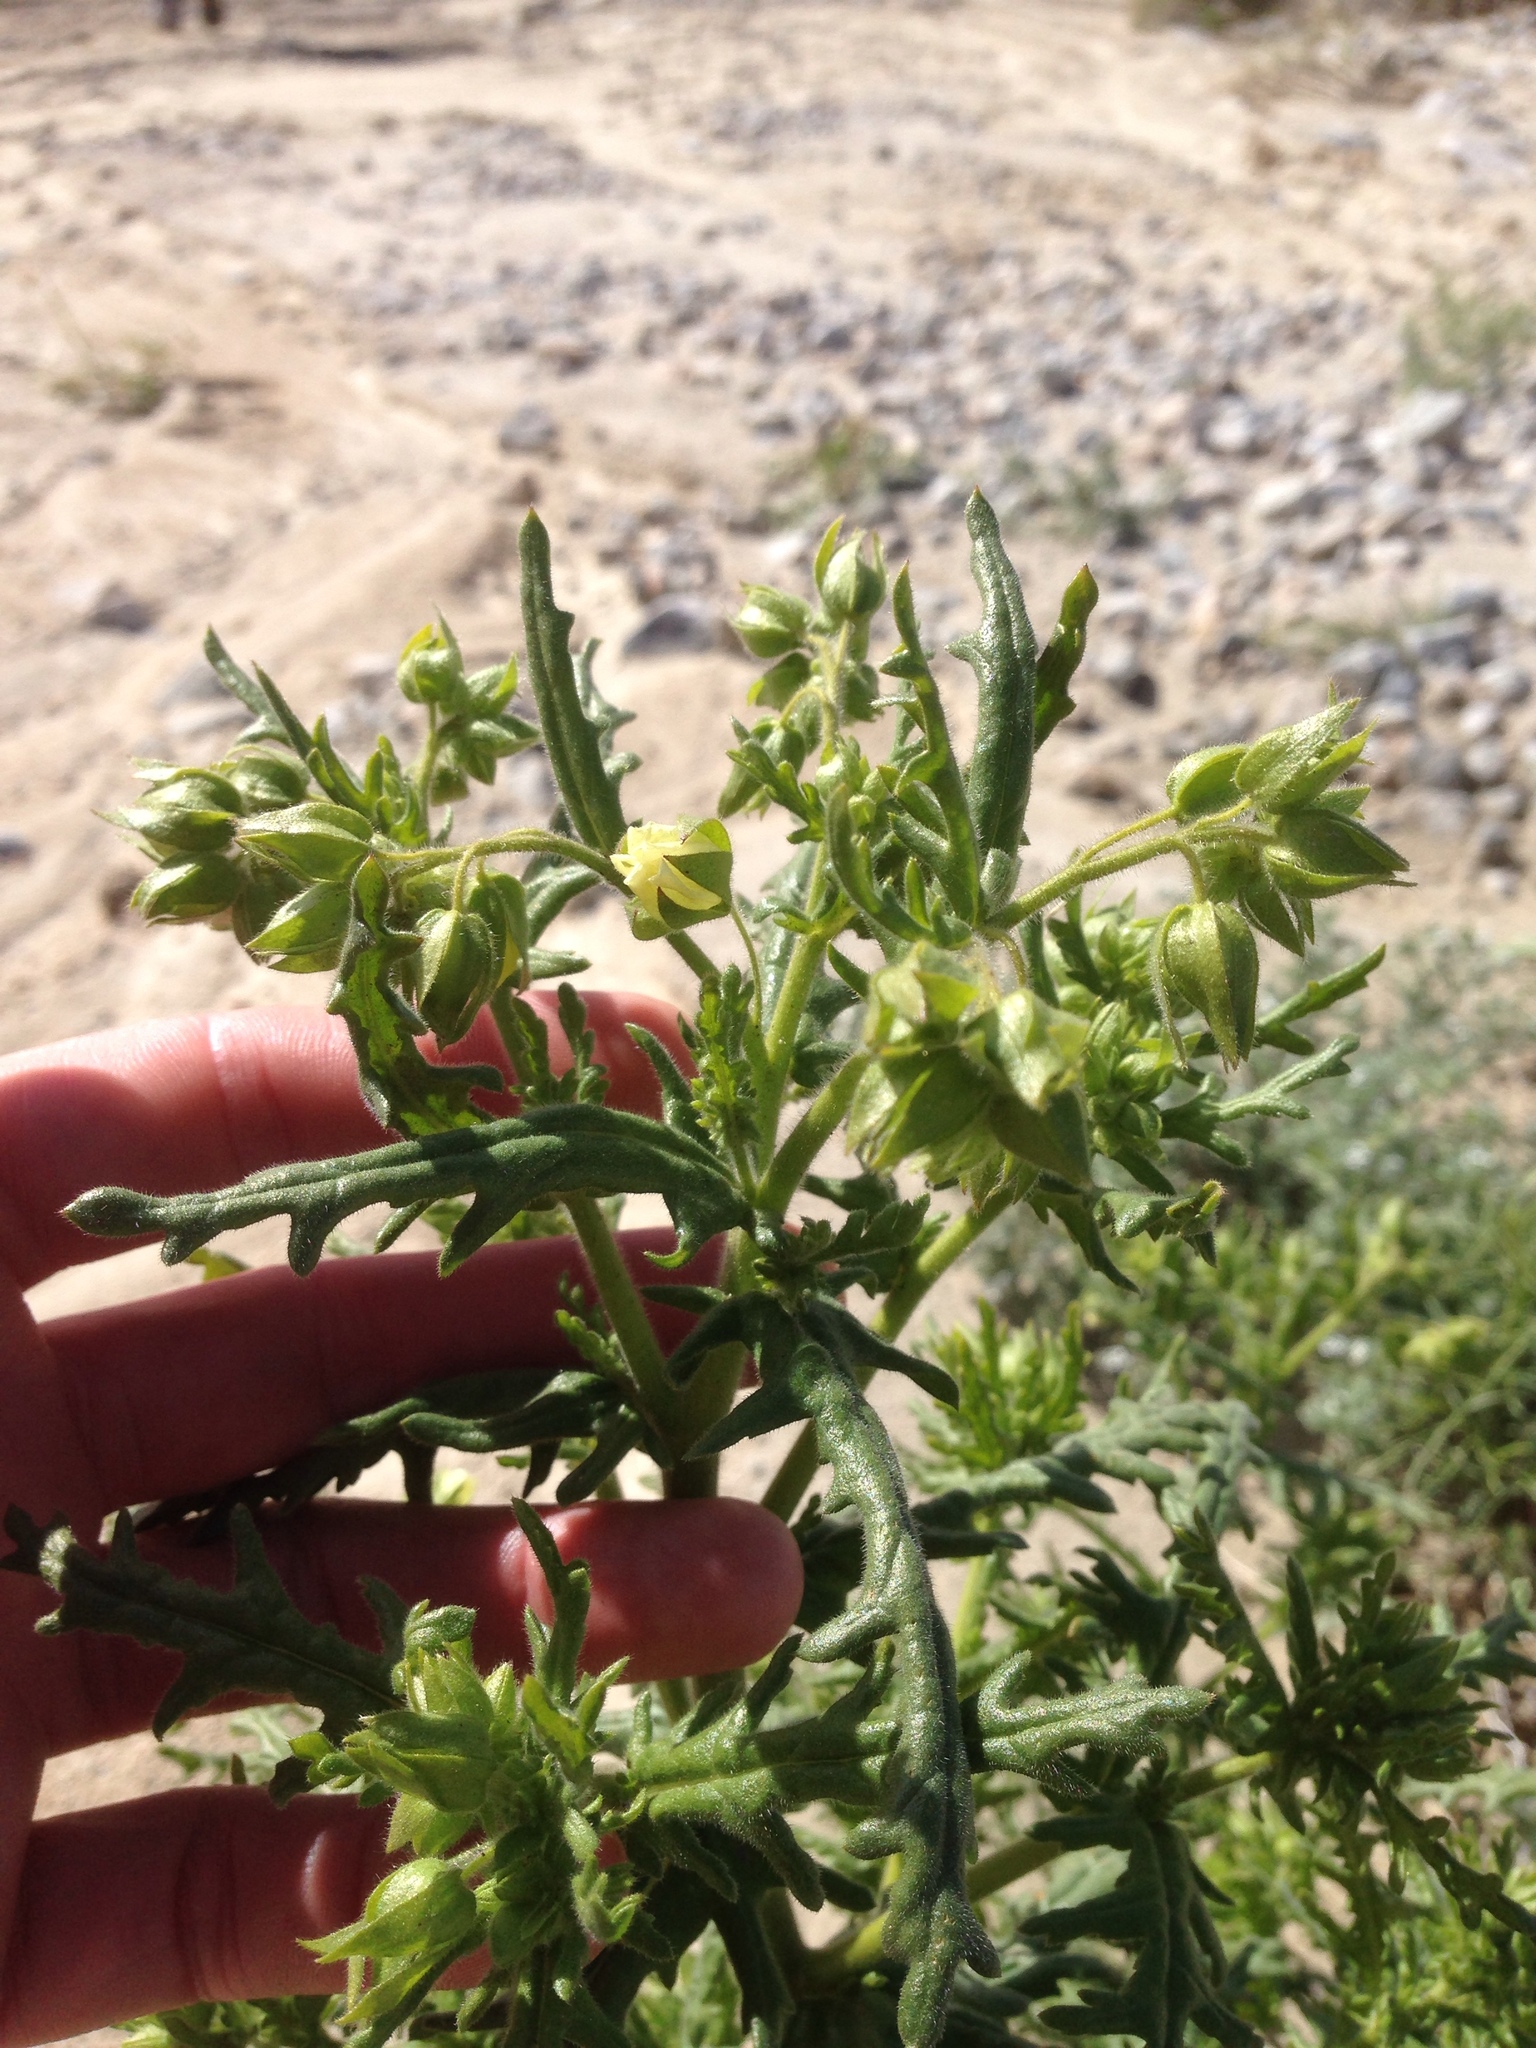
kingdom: Plantae
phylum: Tracheophyta
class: Magnoliopsida
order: Boraginales
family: Hydrophyllaceae
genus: Emmenanthe
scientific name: Emmenanthe penduliflora
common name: Whispering-bells
